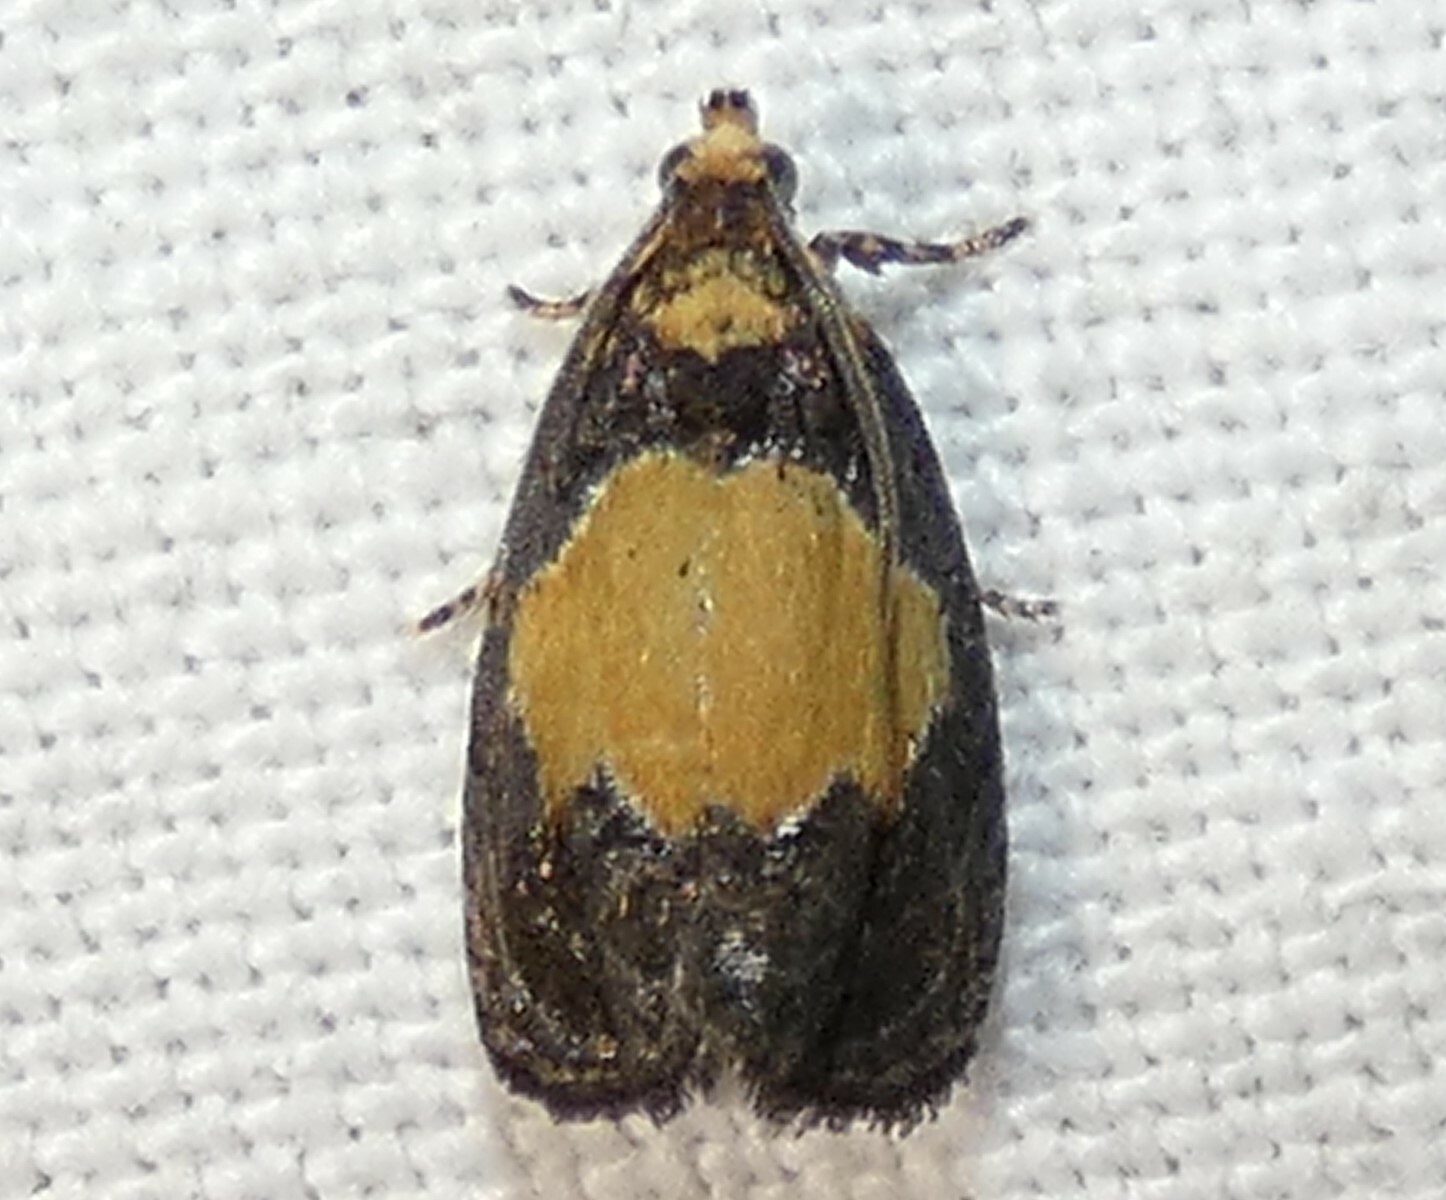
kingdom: Animalia
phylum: Arthropoda
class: Insecta
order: Lepidoptera
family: Tortricidae
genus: Olethreutes
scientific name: Olethreutes osmundana
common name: Fern olethreutes moth
